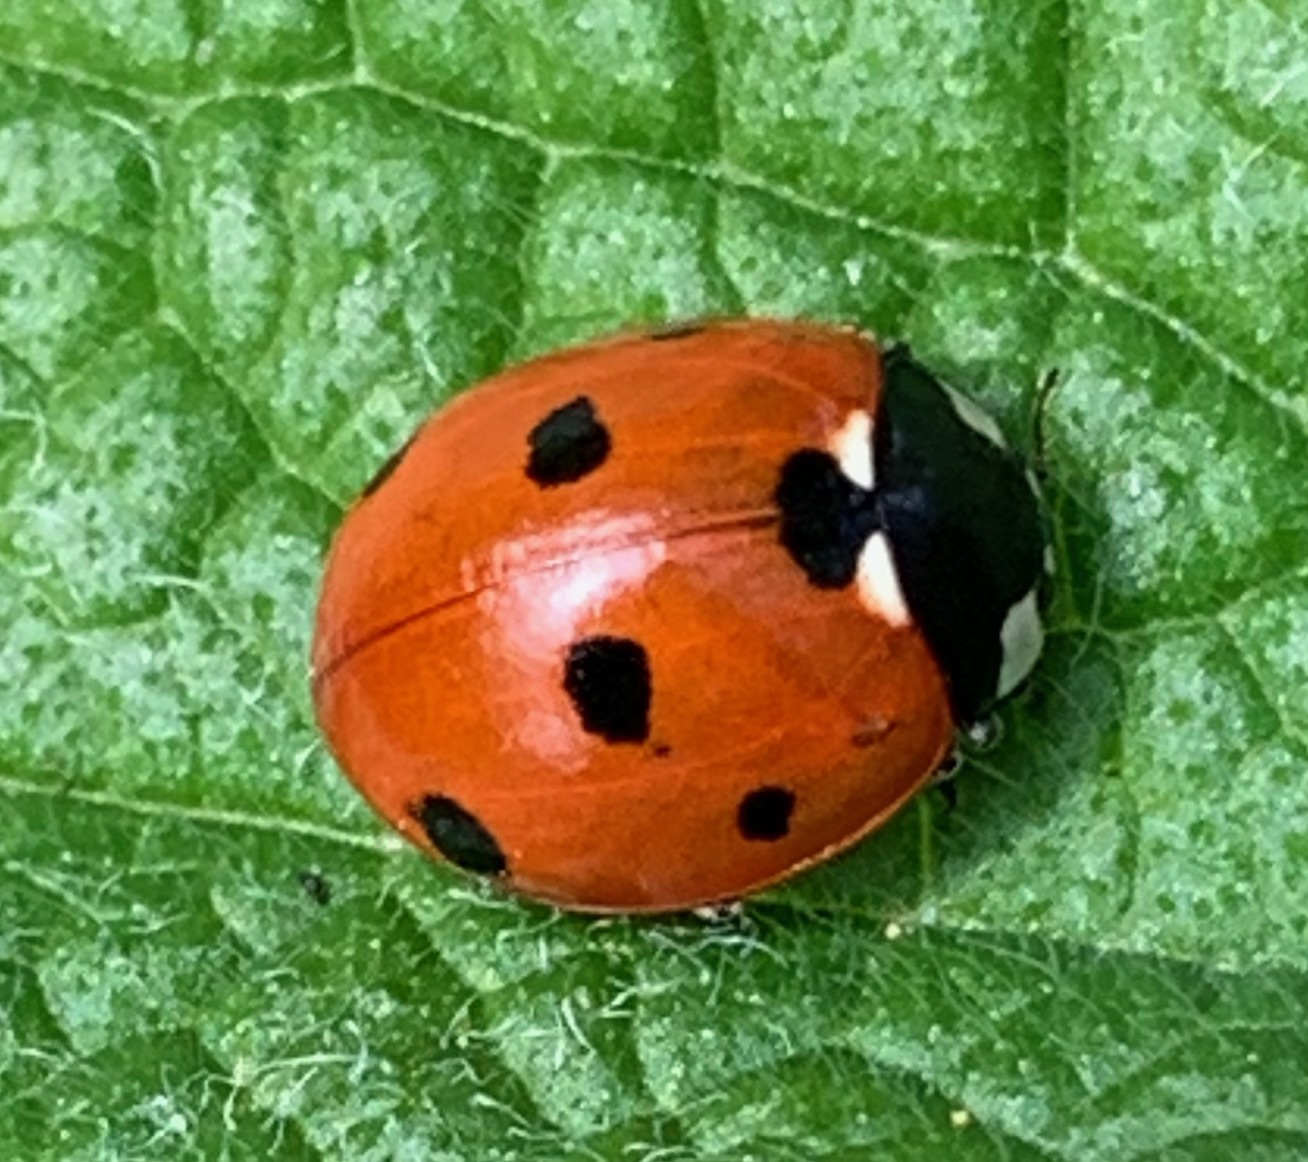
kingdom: Animalia
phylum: Arthropoda
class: Insecta
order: Coleoptera
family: Coccinellidae
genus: Coccinella
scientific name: Coccinella septempunctata
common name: Sevenspotted lady beetle
